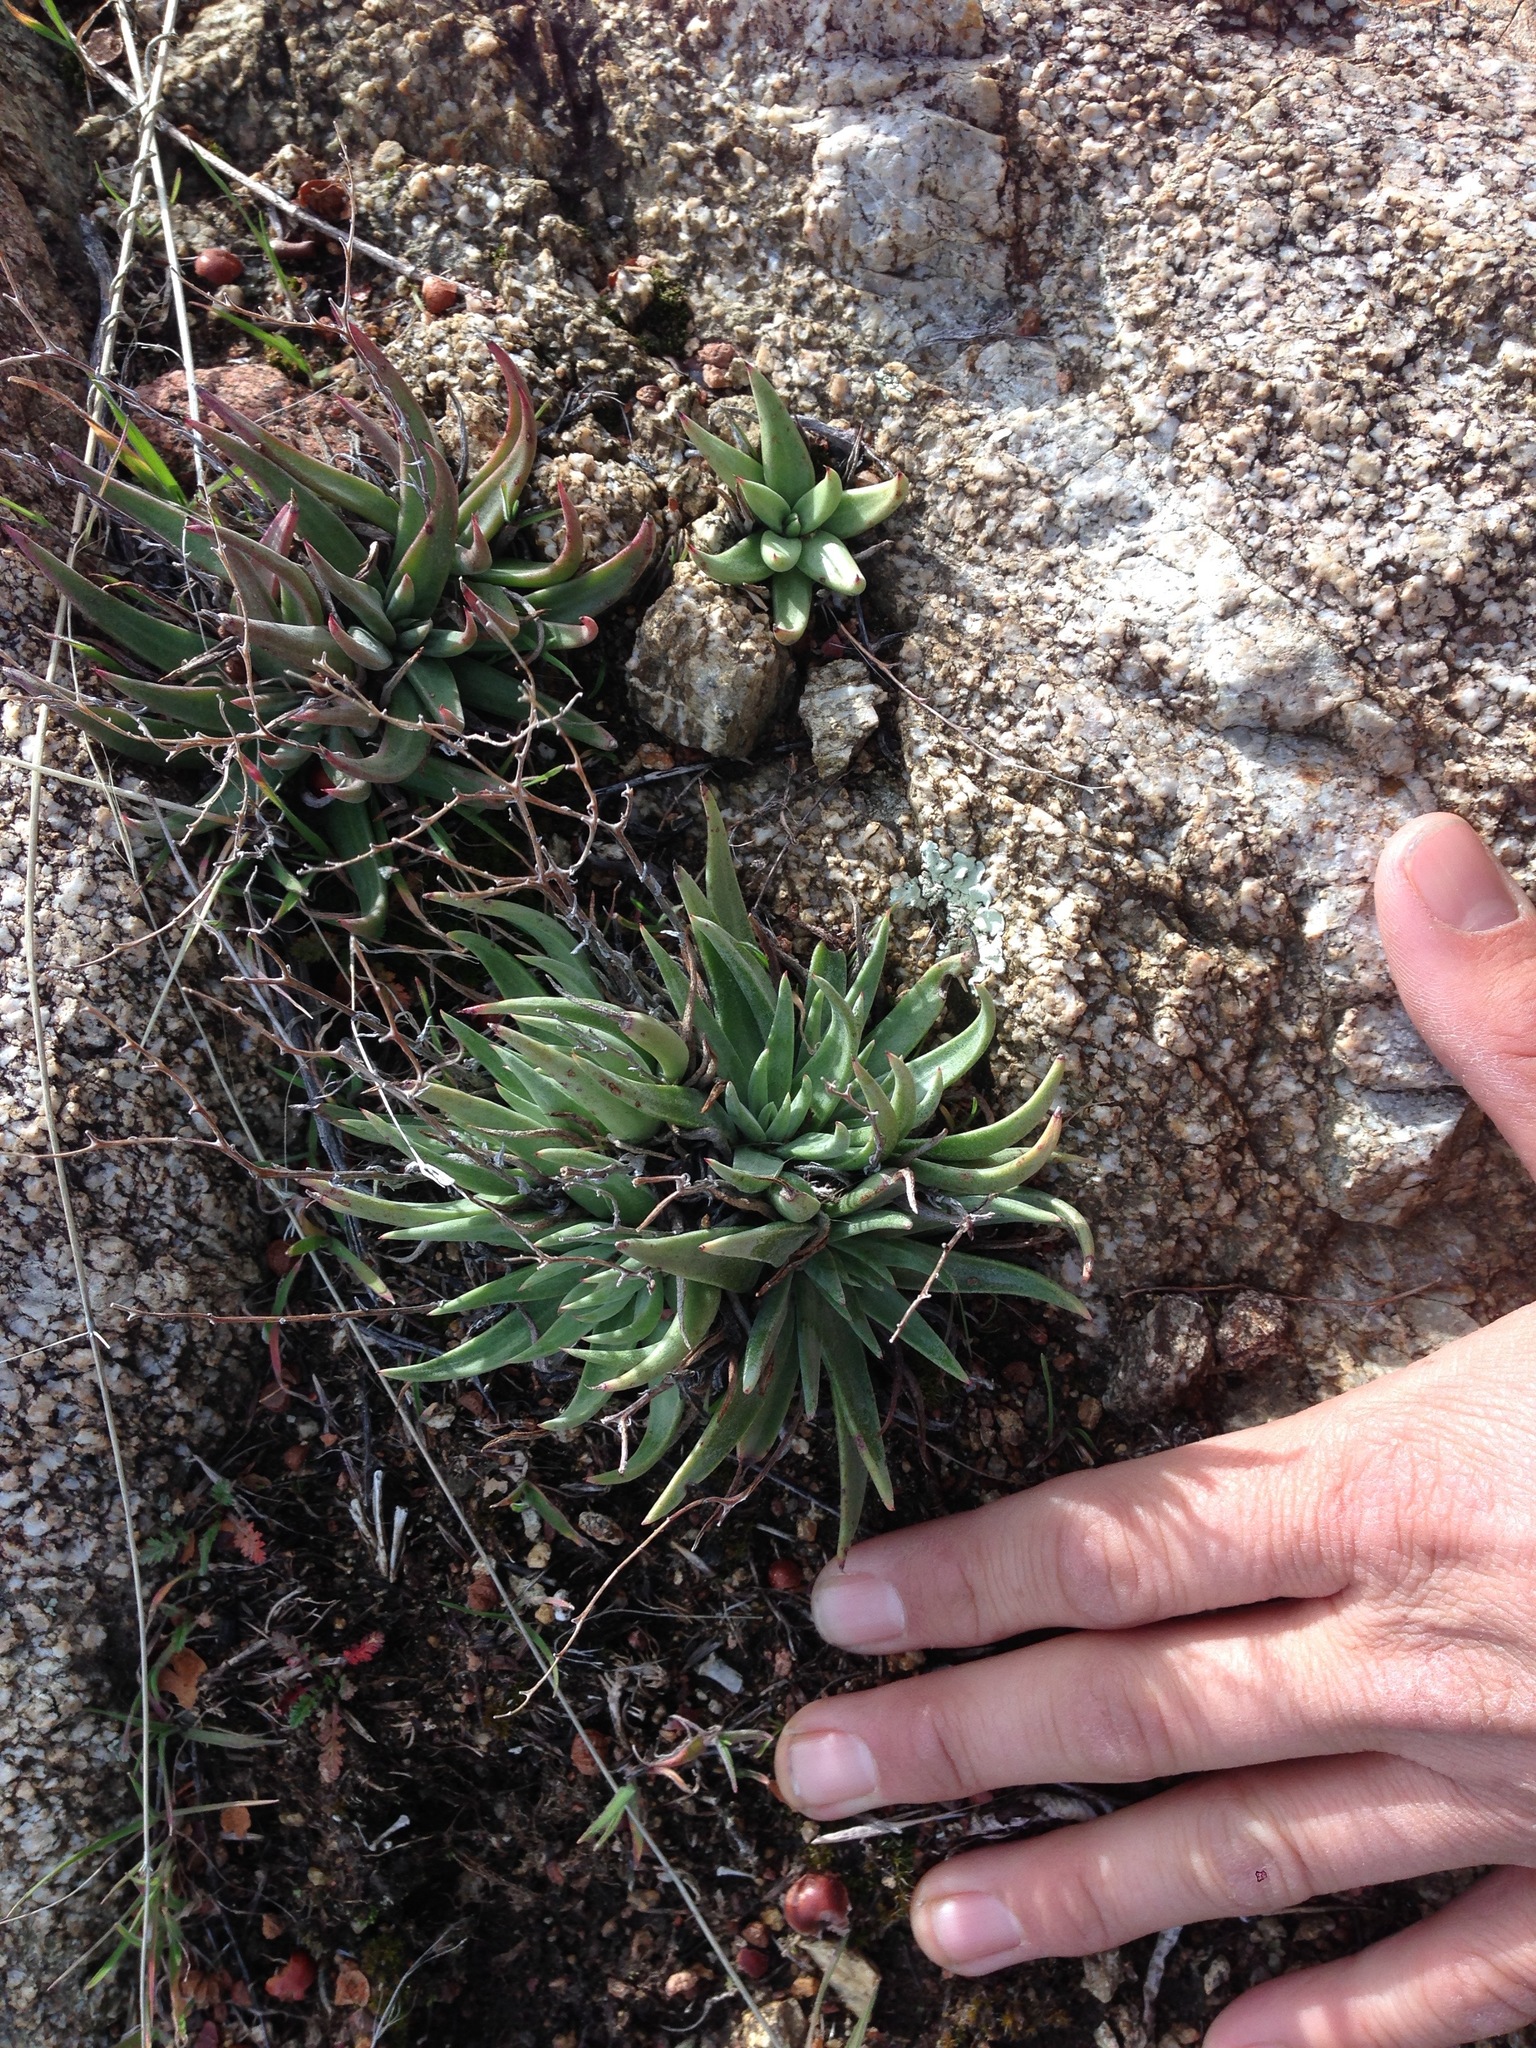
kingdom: Plantae
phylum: Tracheophyta
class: Magnoliopsida
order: Saxifragales
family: Crassulaceae
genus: Dudleya
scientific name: Dudleya abramsii
